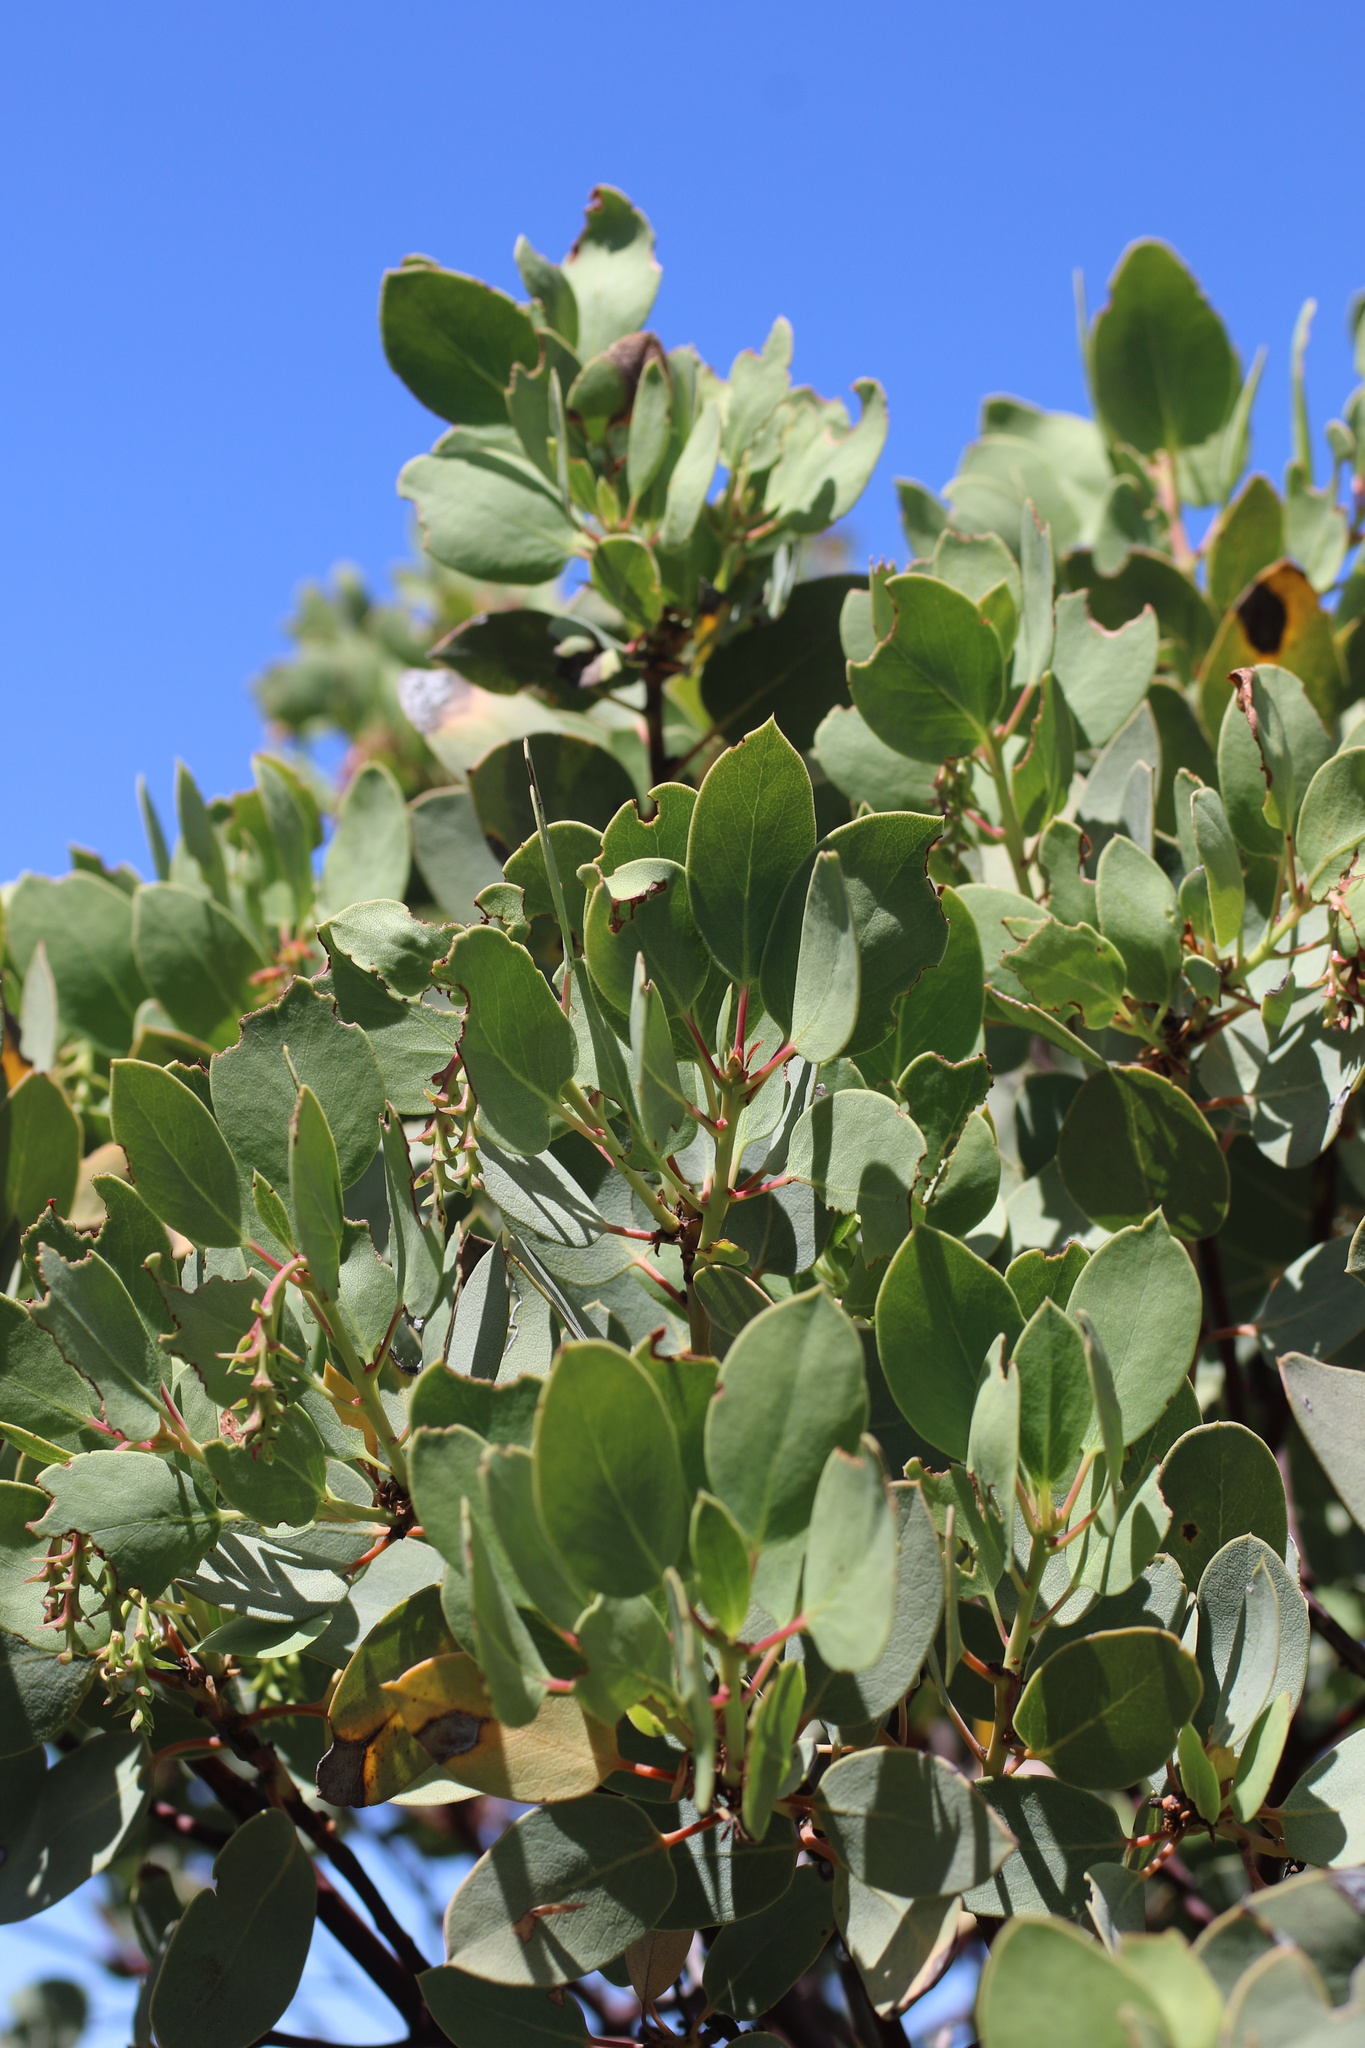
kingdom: Plantae
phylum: Tracheophyta
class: Magnoliopsida
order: Ericales
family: Ericaceae
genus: Arctostaphylos
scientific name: Arctostaphylos glauca
